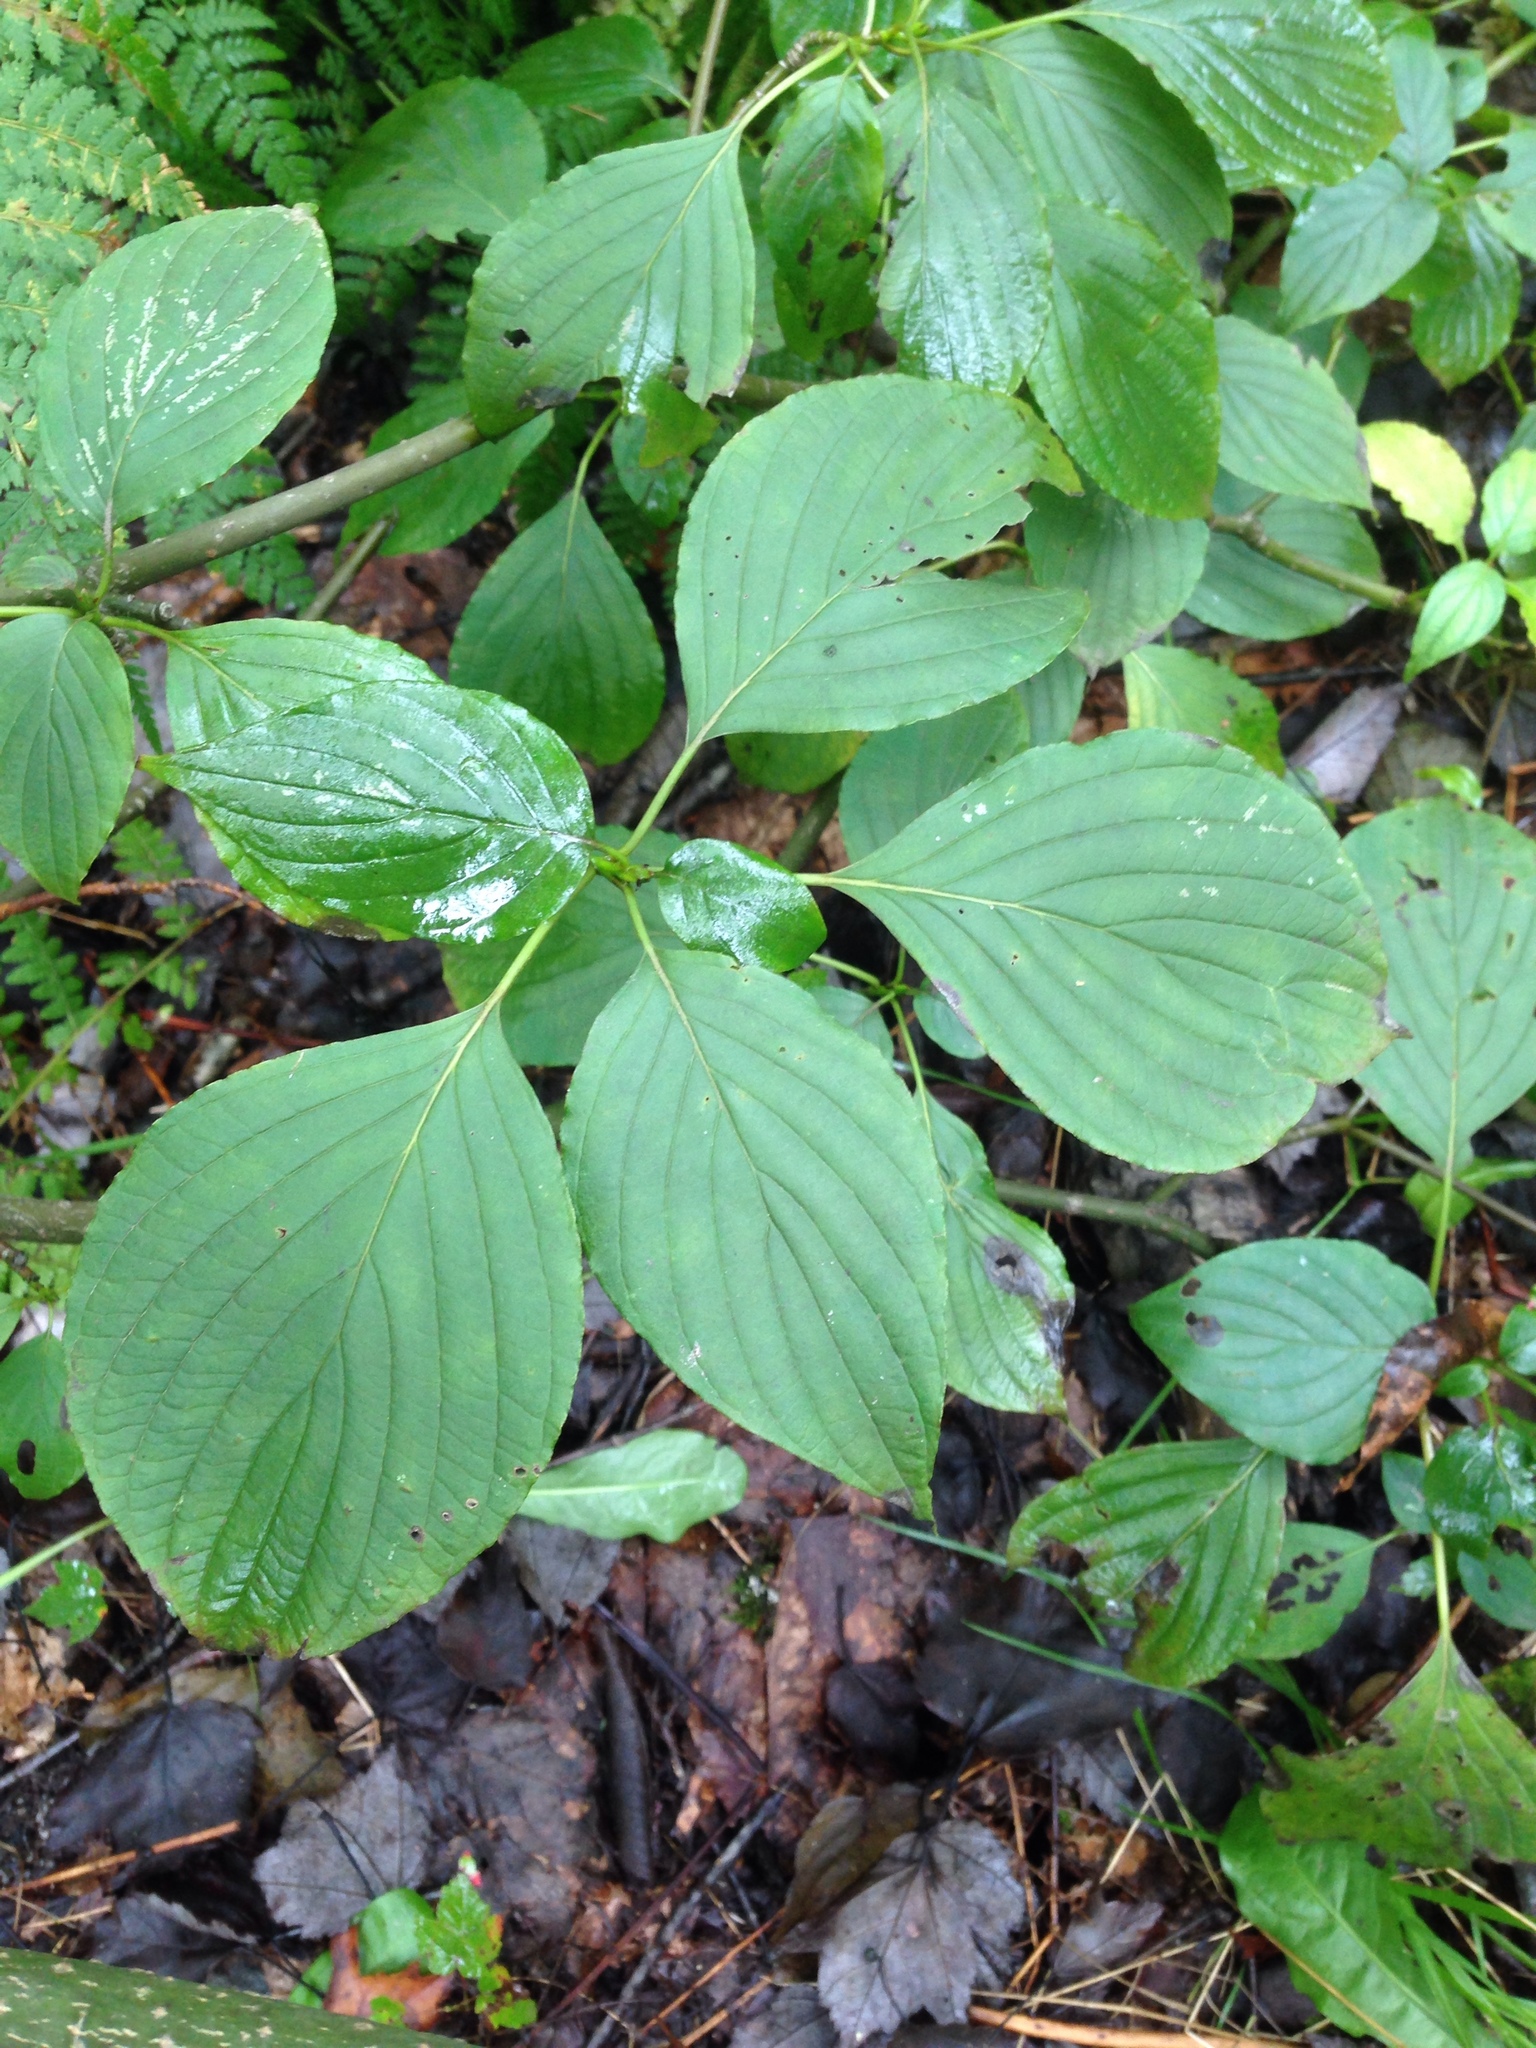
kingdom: Plantae
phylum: Tracheophyta
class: Magnoliopsida
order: Cornales
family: Cornaceae
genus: Cornus
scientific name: Cornus alternifolia
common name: Pagoda dogwood
